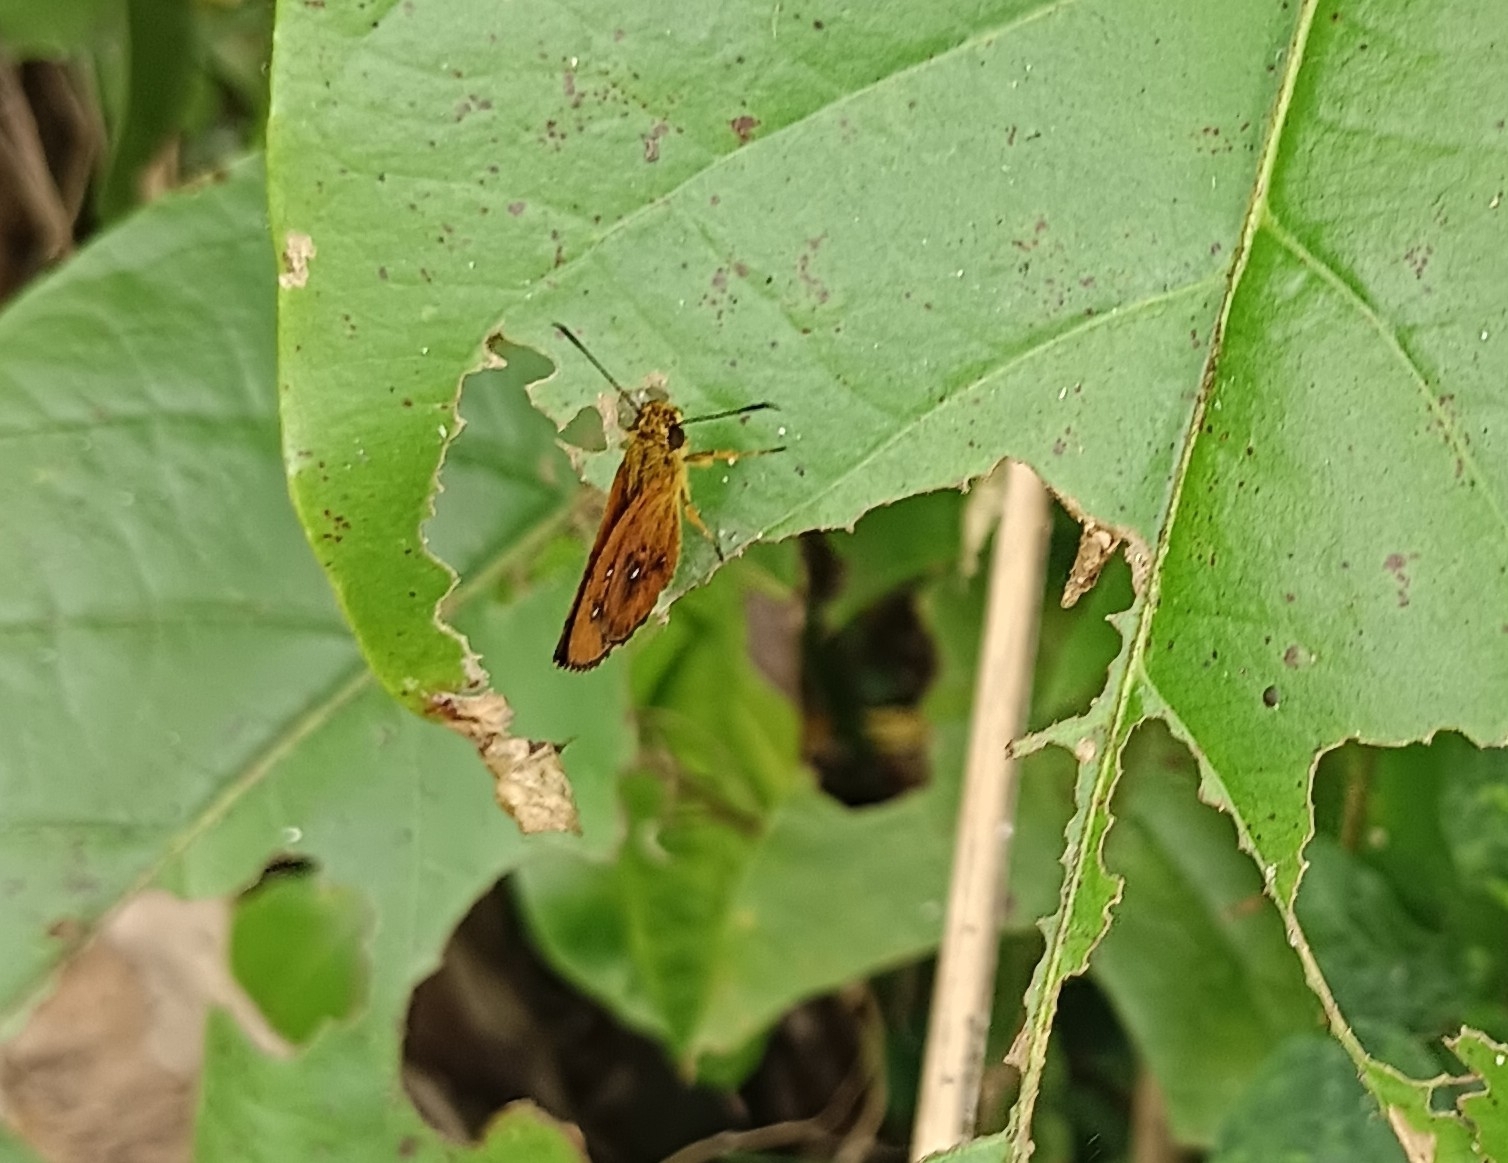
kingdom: Animalia
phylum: Arthropoda
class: Insecta
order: Lepidoptera
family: Hesperiidae
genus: Iambrix
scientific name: Iambrix salsala
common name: Chestnut bob
